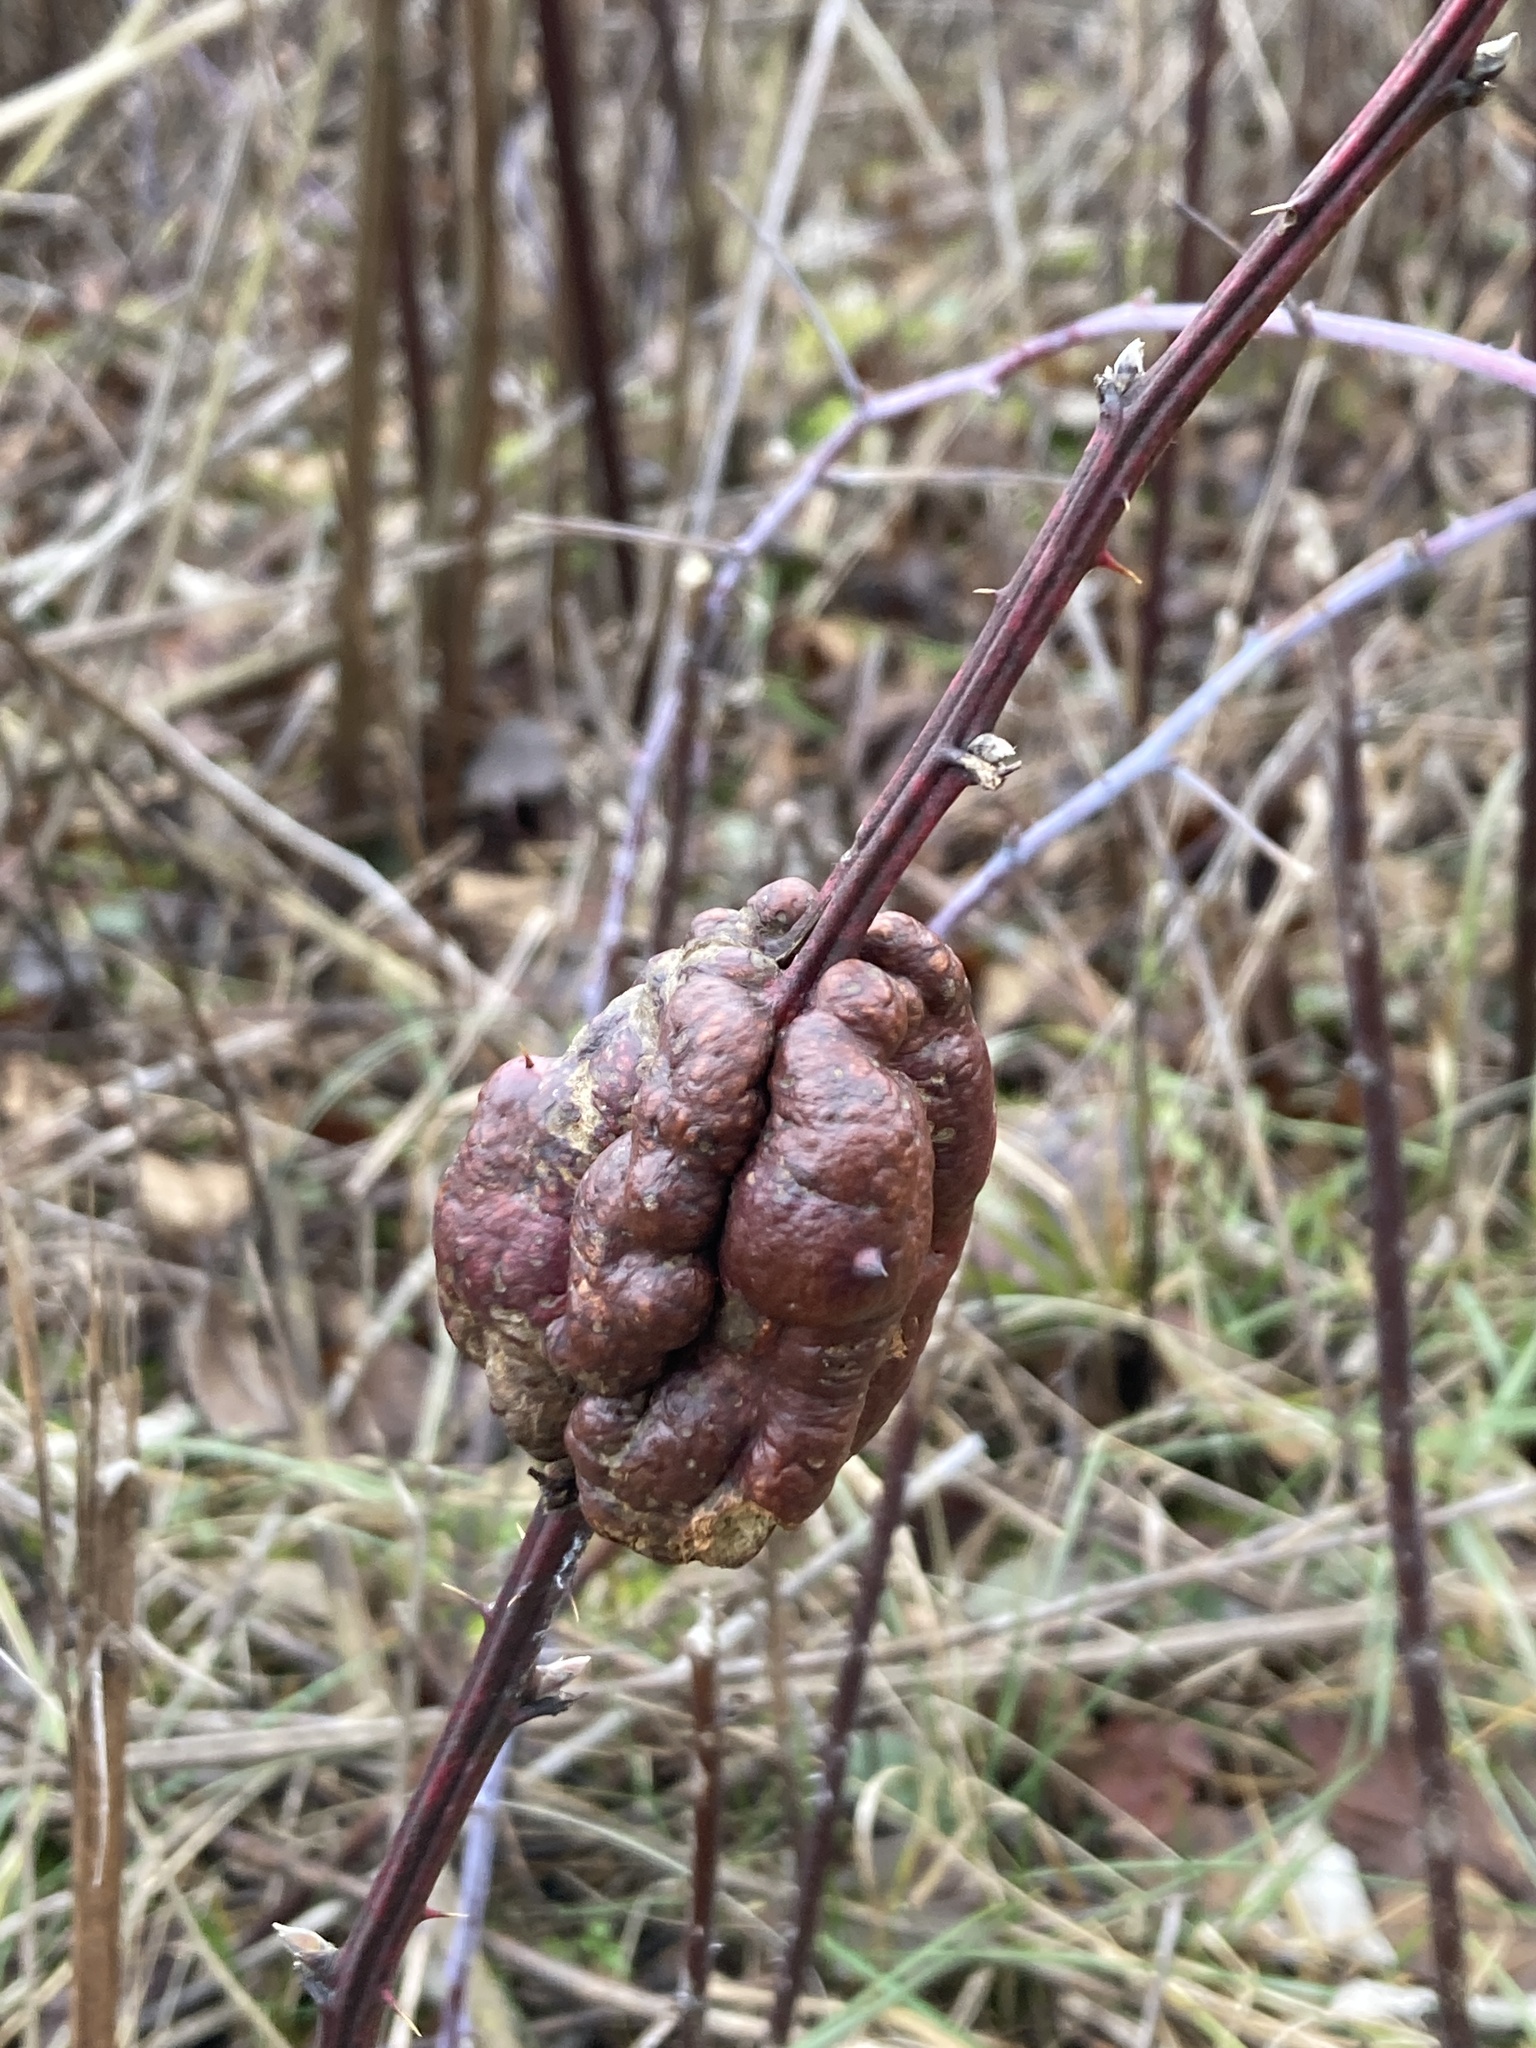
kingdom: Animalia
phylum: Arthropoda
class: Insecta
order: Hymenoptera
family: Cynipidae
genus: Diastrophus
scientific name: Diastrophus
